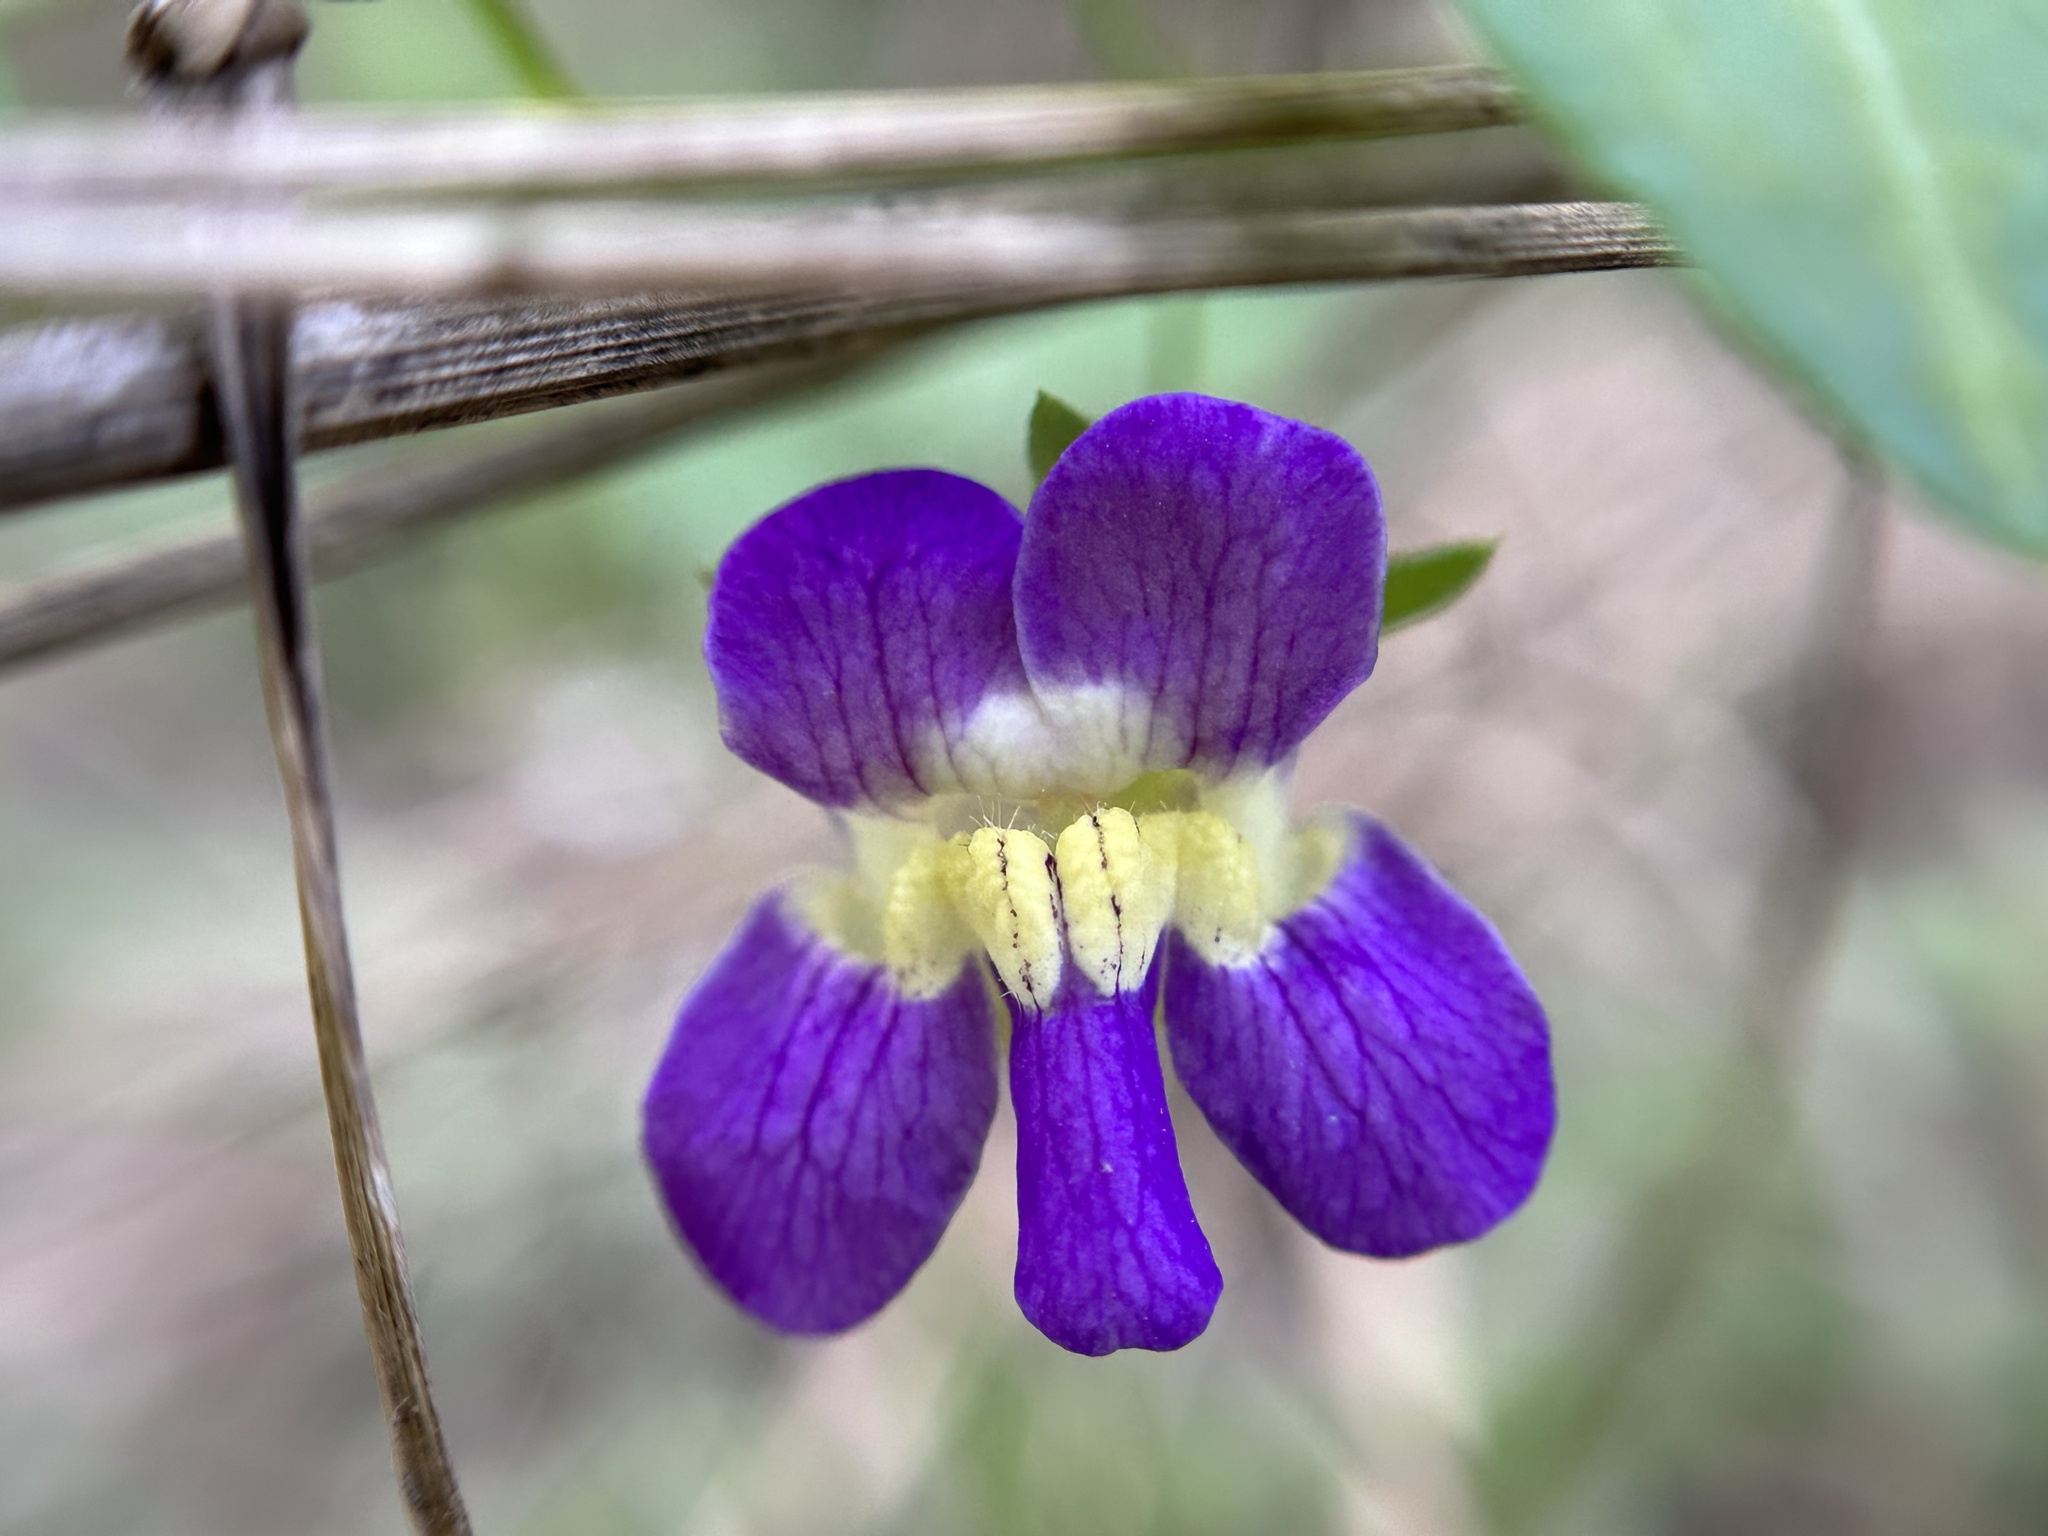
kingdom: Plantae
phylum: Tracheophyta
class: Magnoliopsida
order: Lamiales
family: Plantaginaceae
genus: Maurandella
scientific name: Maurandella antirrhiniflora
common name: Violet twining-snapdragon
